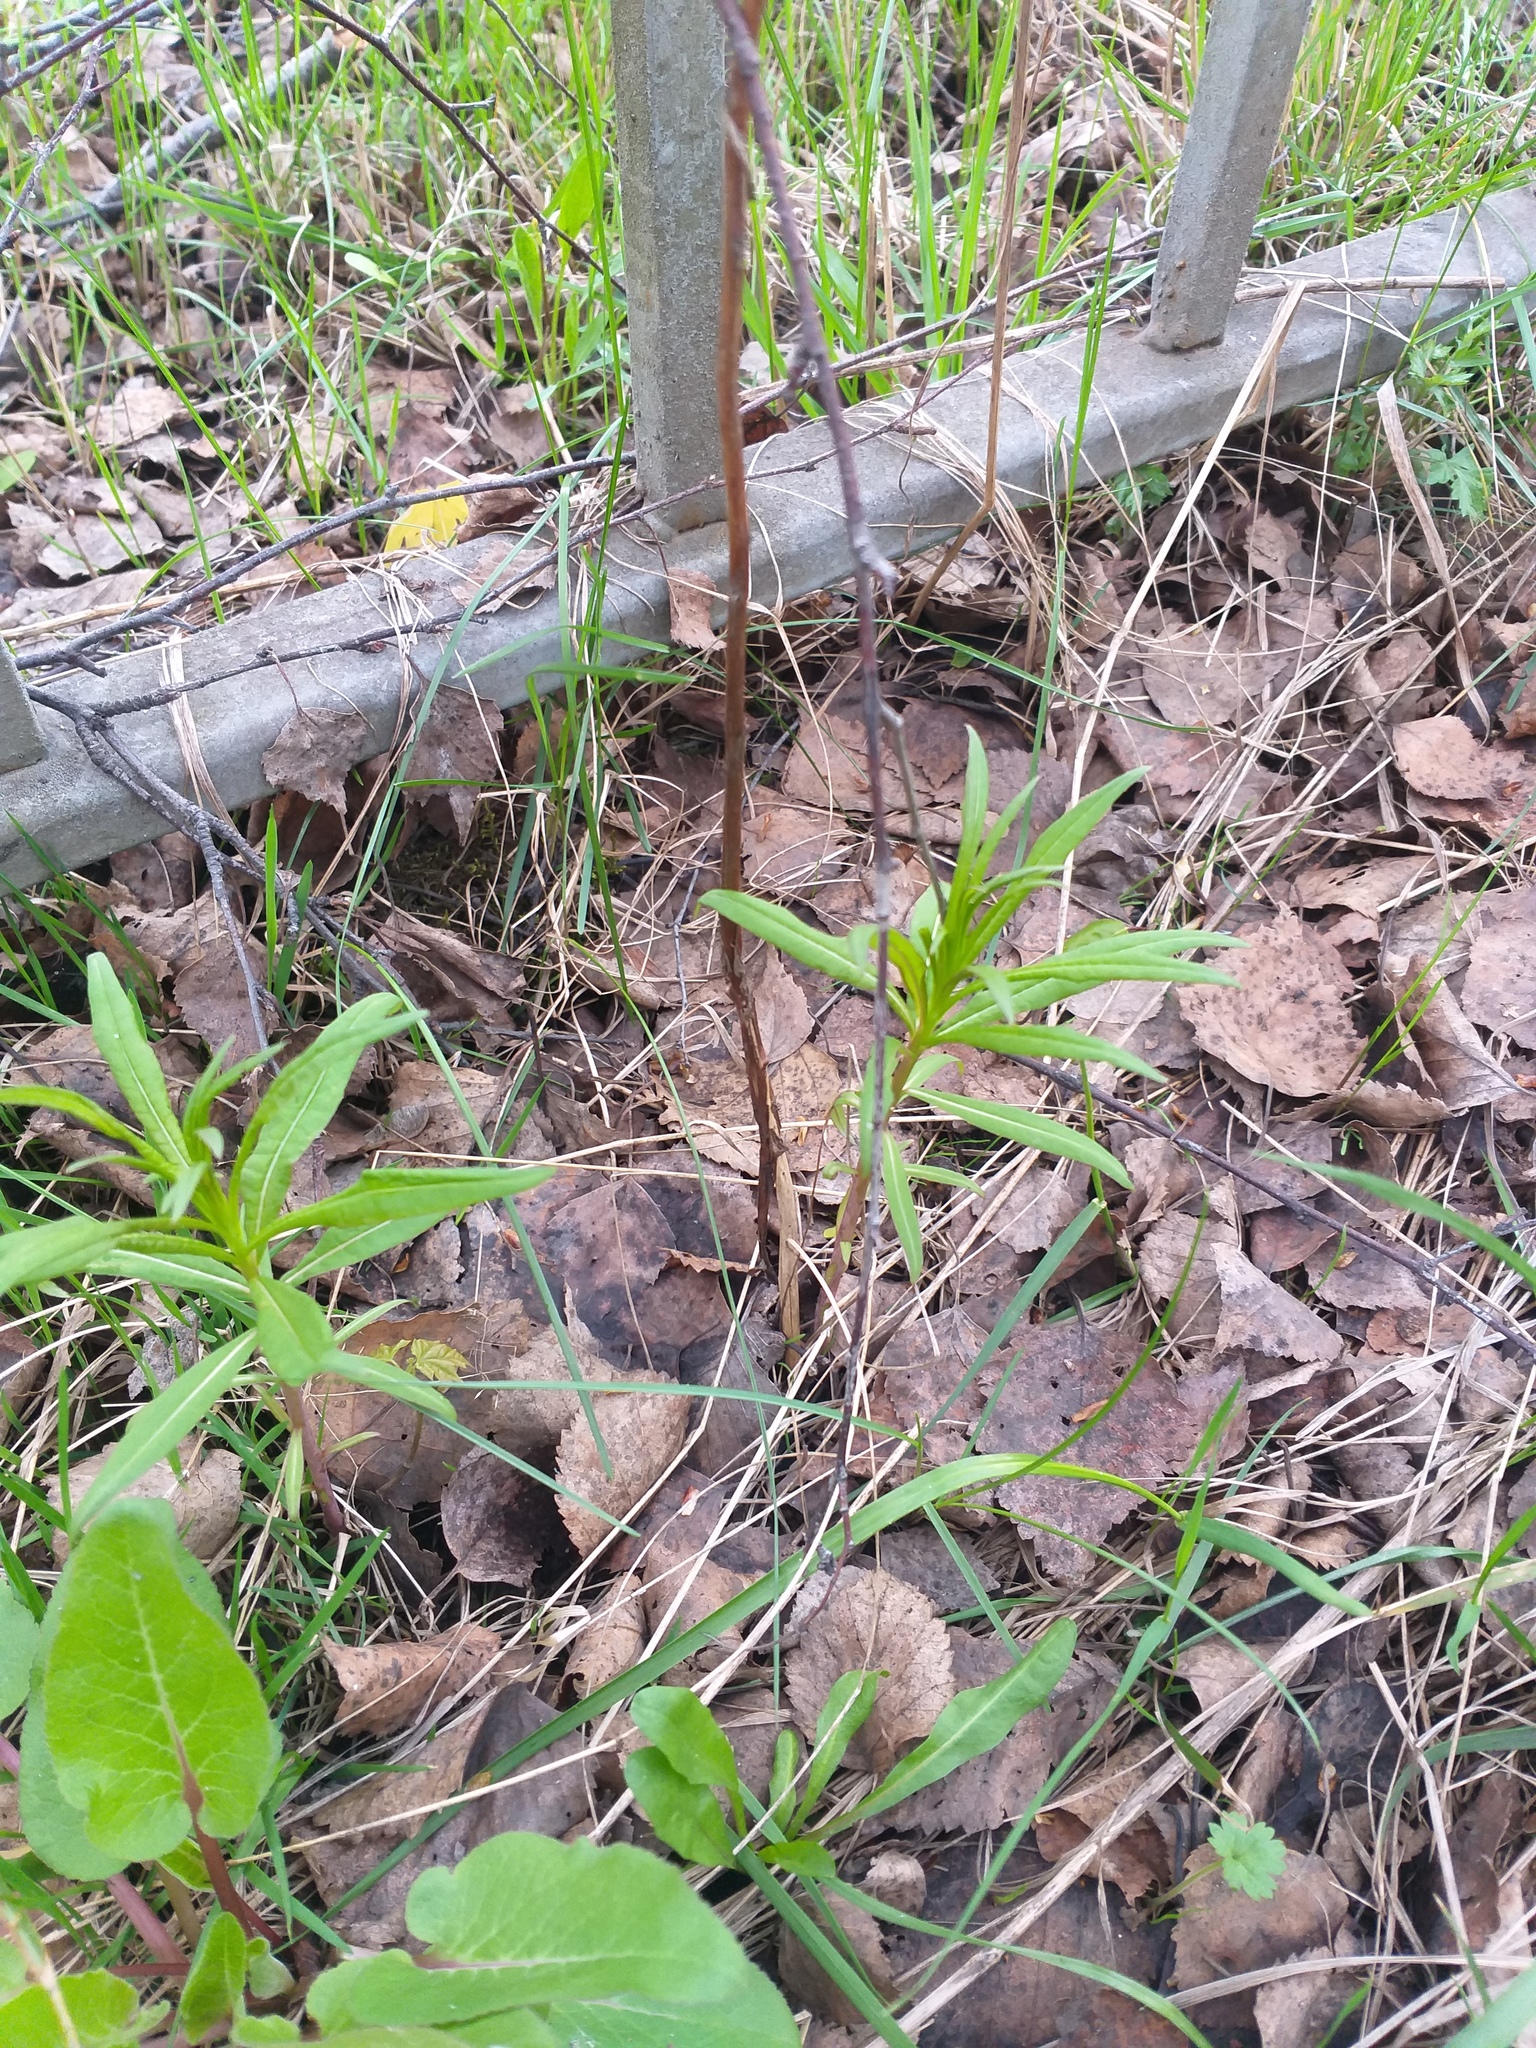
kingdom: Plantae
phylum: Tracheophyta
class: Magnoliopsida
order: Myrtales
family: Onagraceae
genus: Chamaenerion
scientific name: Chamaenerion angustifolium
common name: Fireweed
